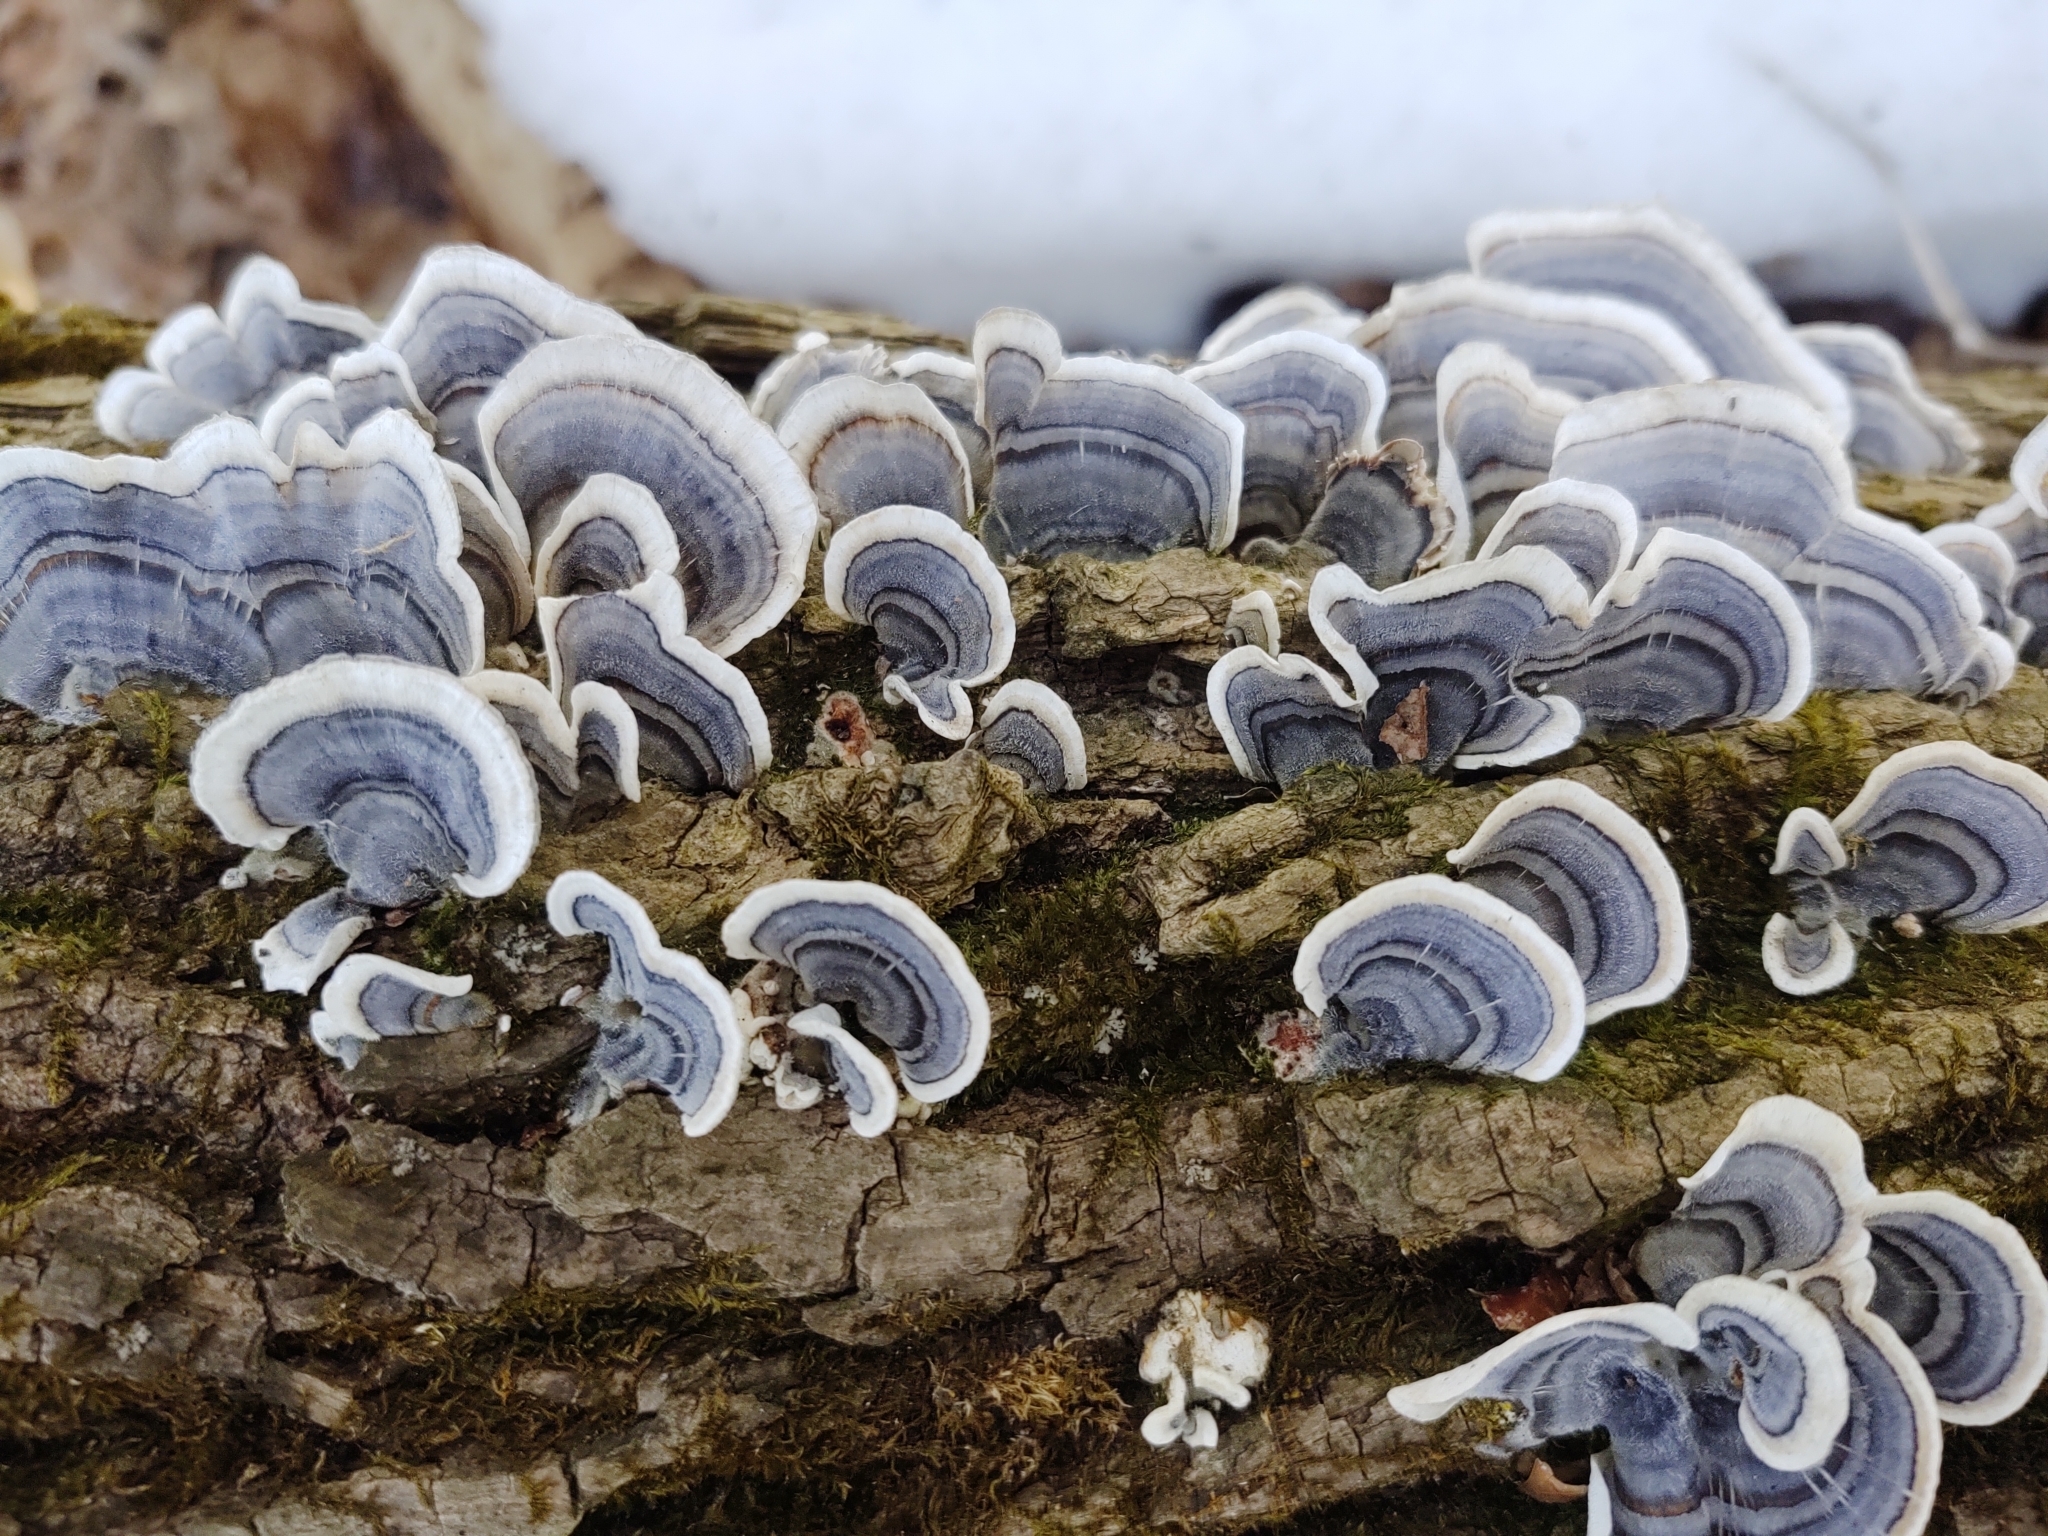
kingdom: Fungi
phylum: Basidiomycota
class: Agaricomycetes
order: Polyporales
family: Polyporaceae
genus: Trametes
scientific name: Trametes versicolor
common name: Turkeytail
